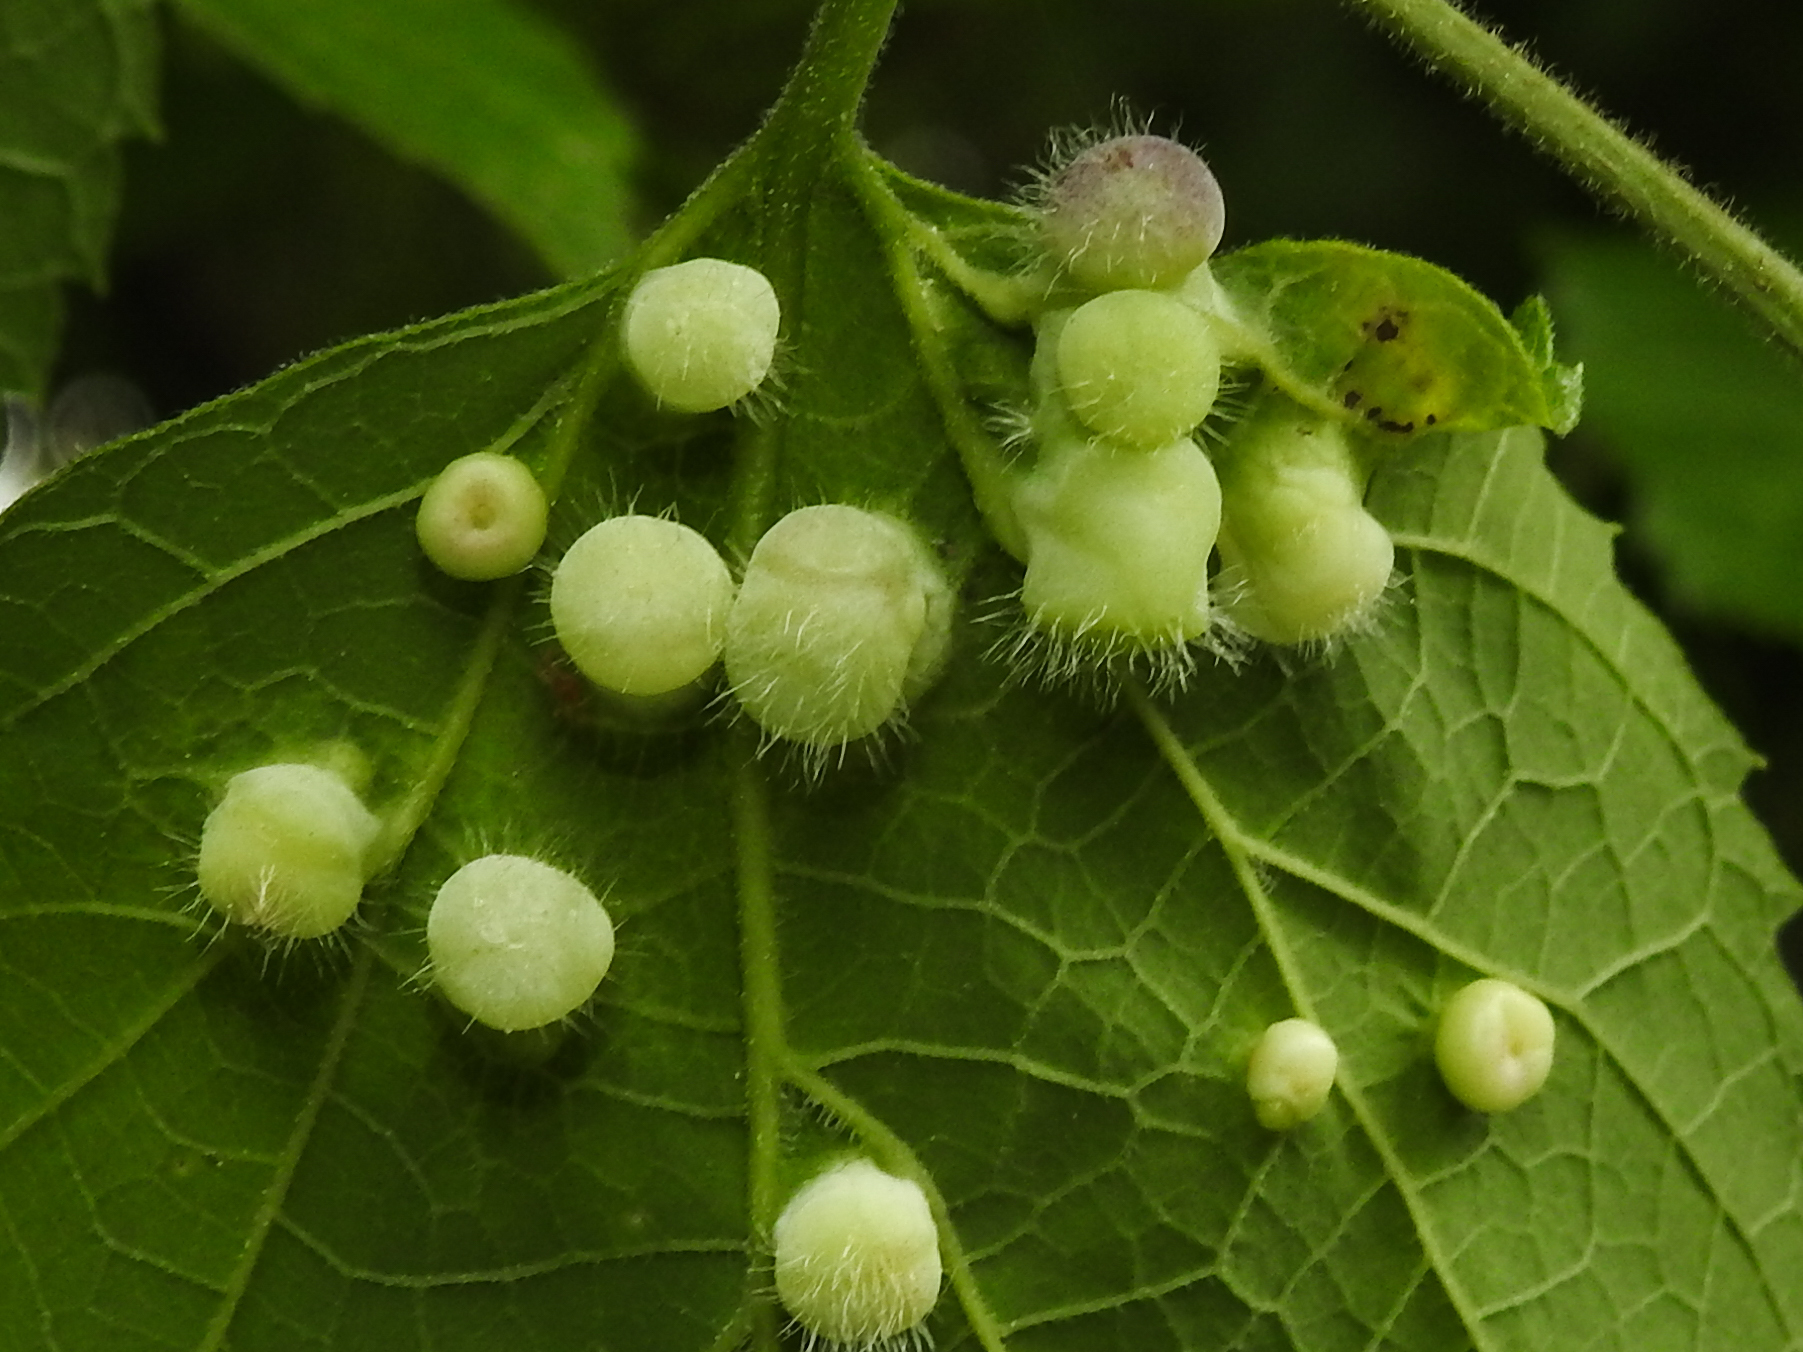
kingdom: Animalia
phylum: Arthropoda
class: Insecta
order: Hemiptera
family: Aphalaridae
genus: Pachypsylla
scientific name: Pachypsylla celtidismamma
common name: Hackberry nipplegall psyllid
